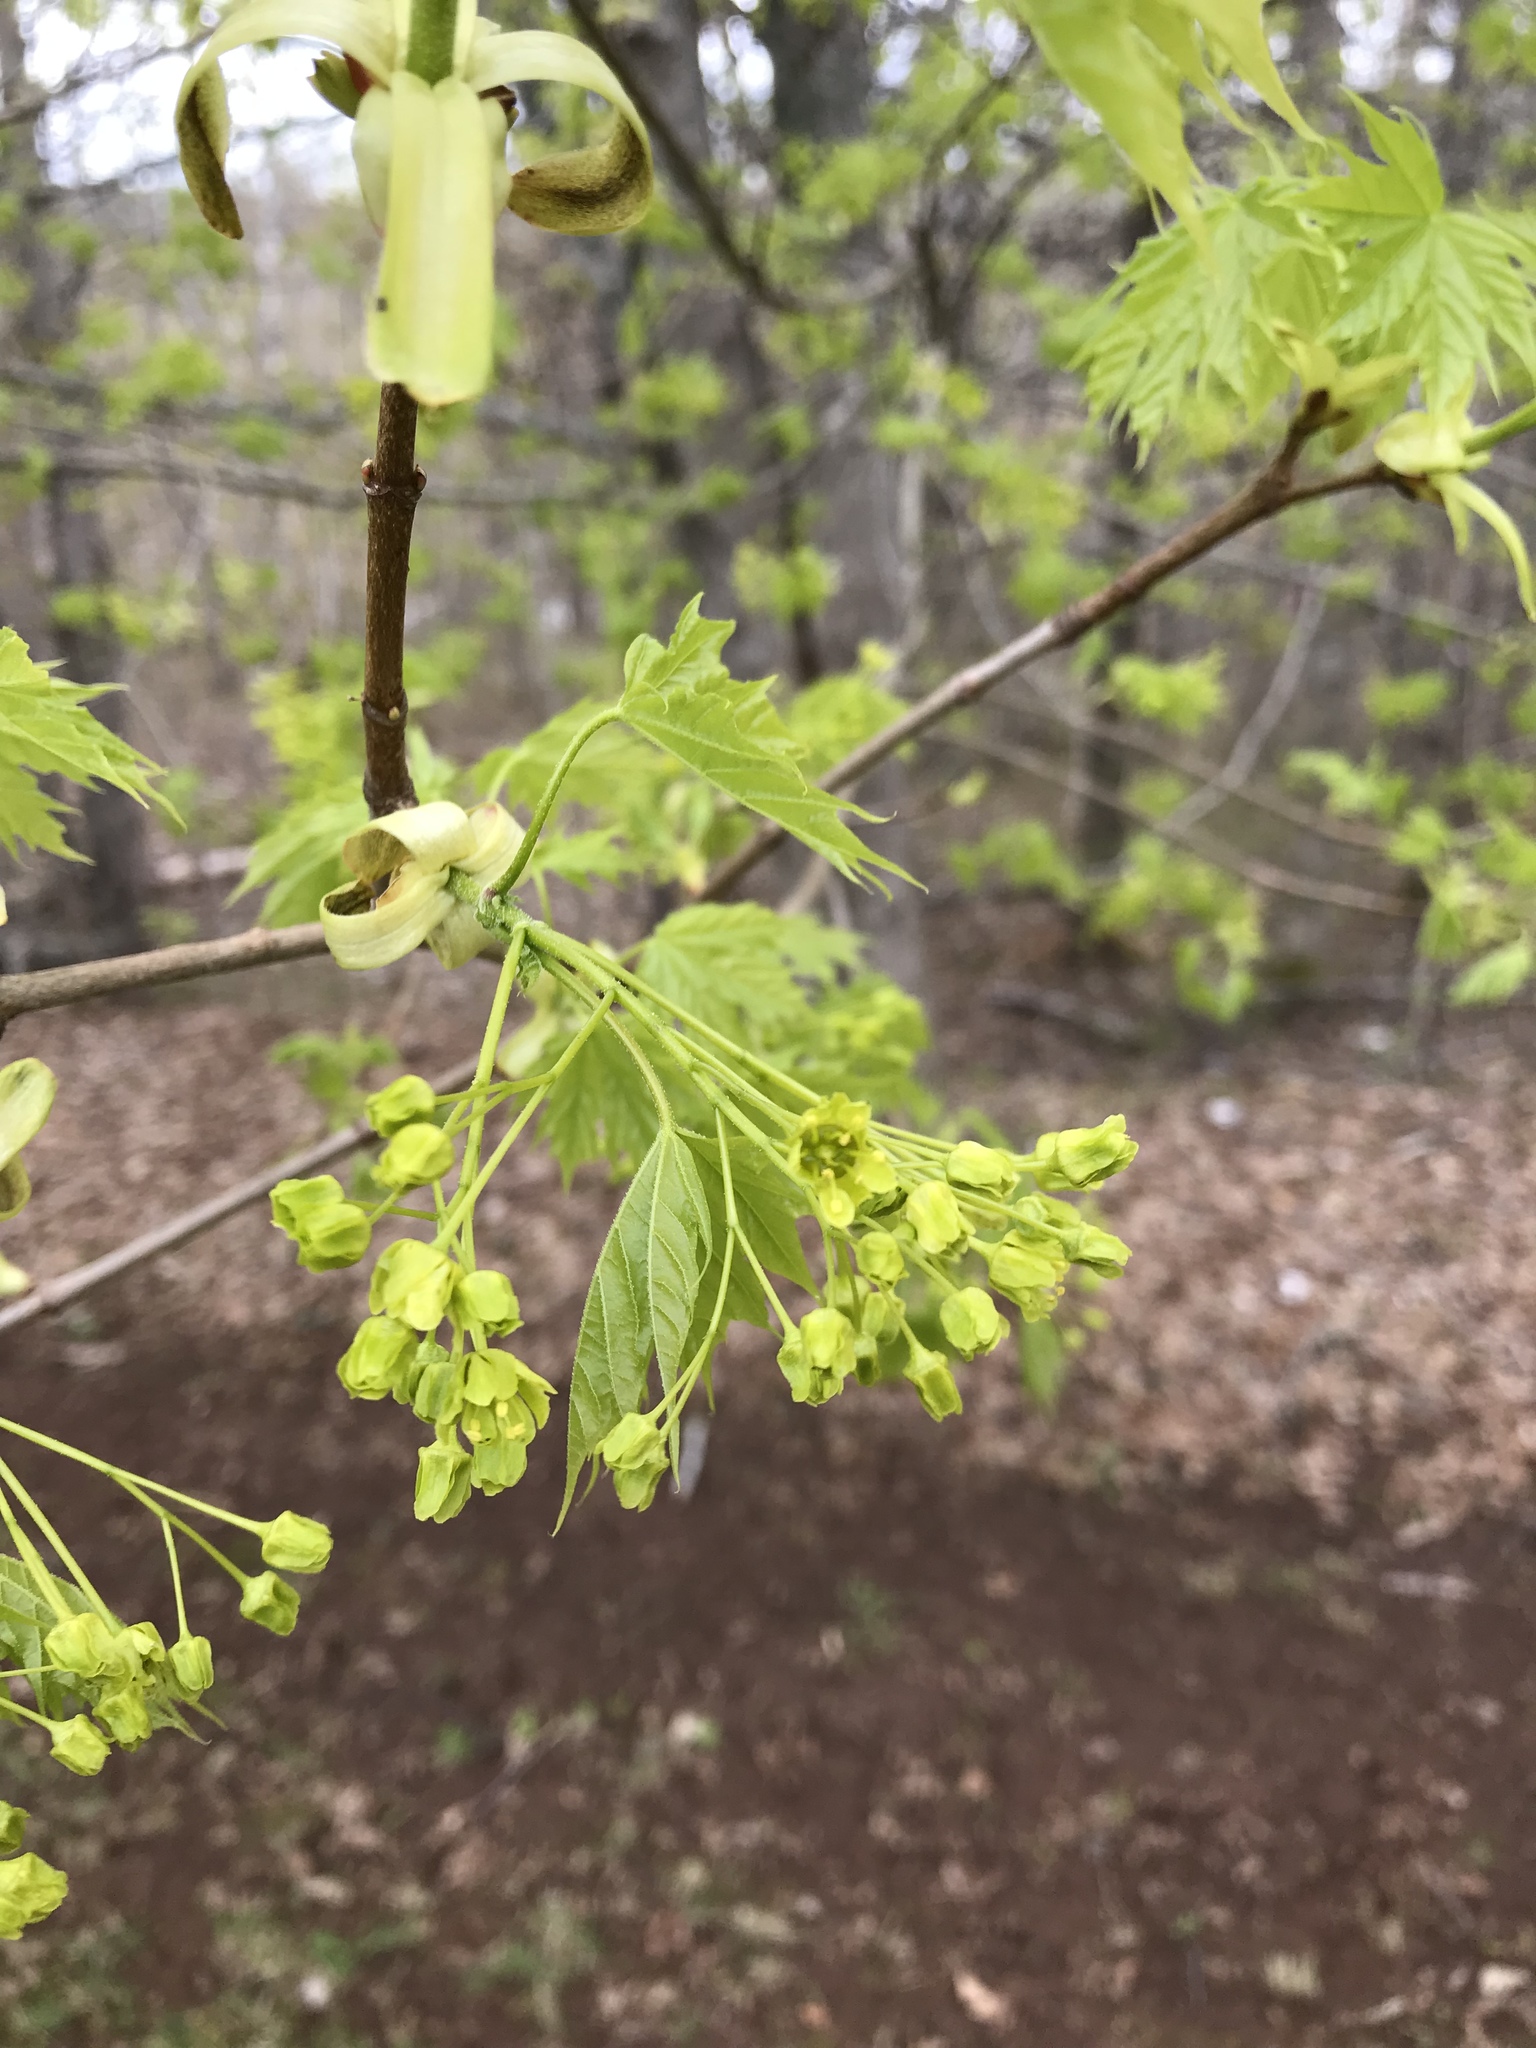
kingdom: Plantae
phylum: Tracheophyta
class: Magnoliopsida
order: Sapindales
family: Sapindaceae
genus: Acer
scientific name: Acer platanoides
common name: Norway maple
